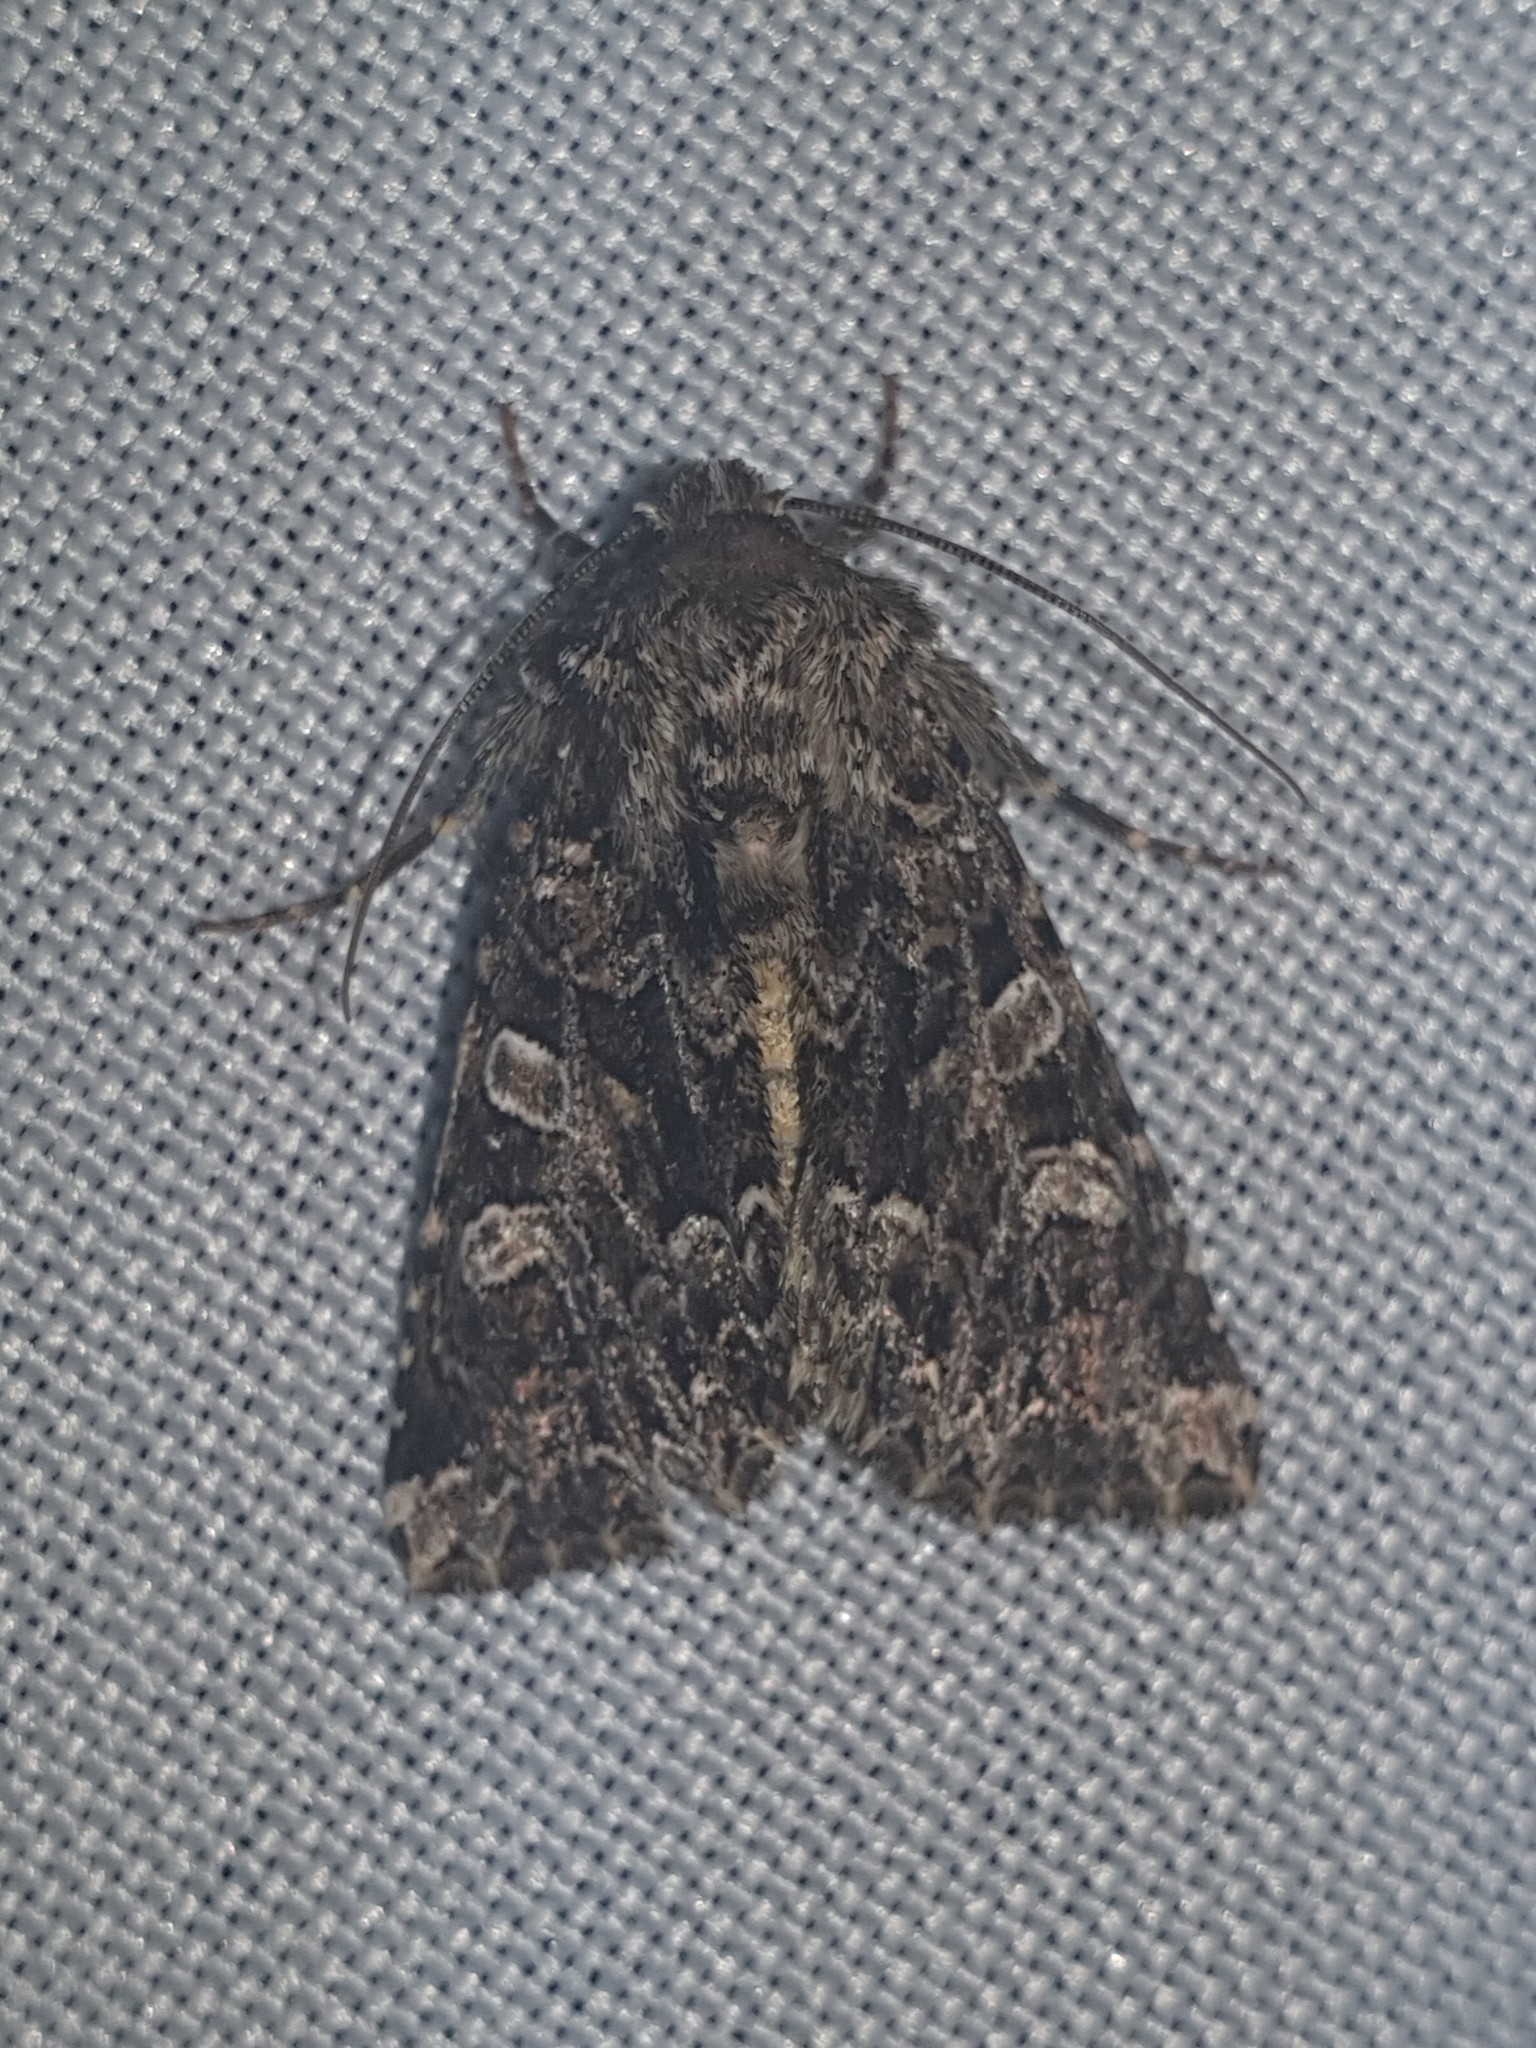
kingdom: Animalia
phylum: Arthropoda
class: Insecta
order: Lepidoptera
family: Noctuidae
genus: Hadena
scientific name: Hadena perplexa
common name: Tawny shears
